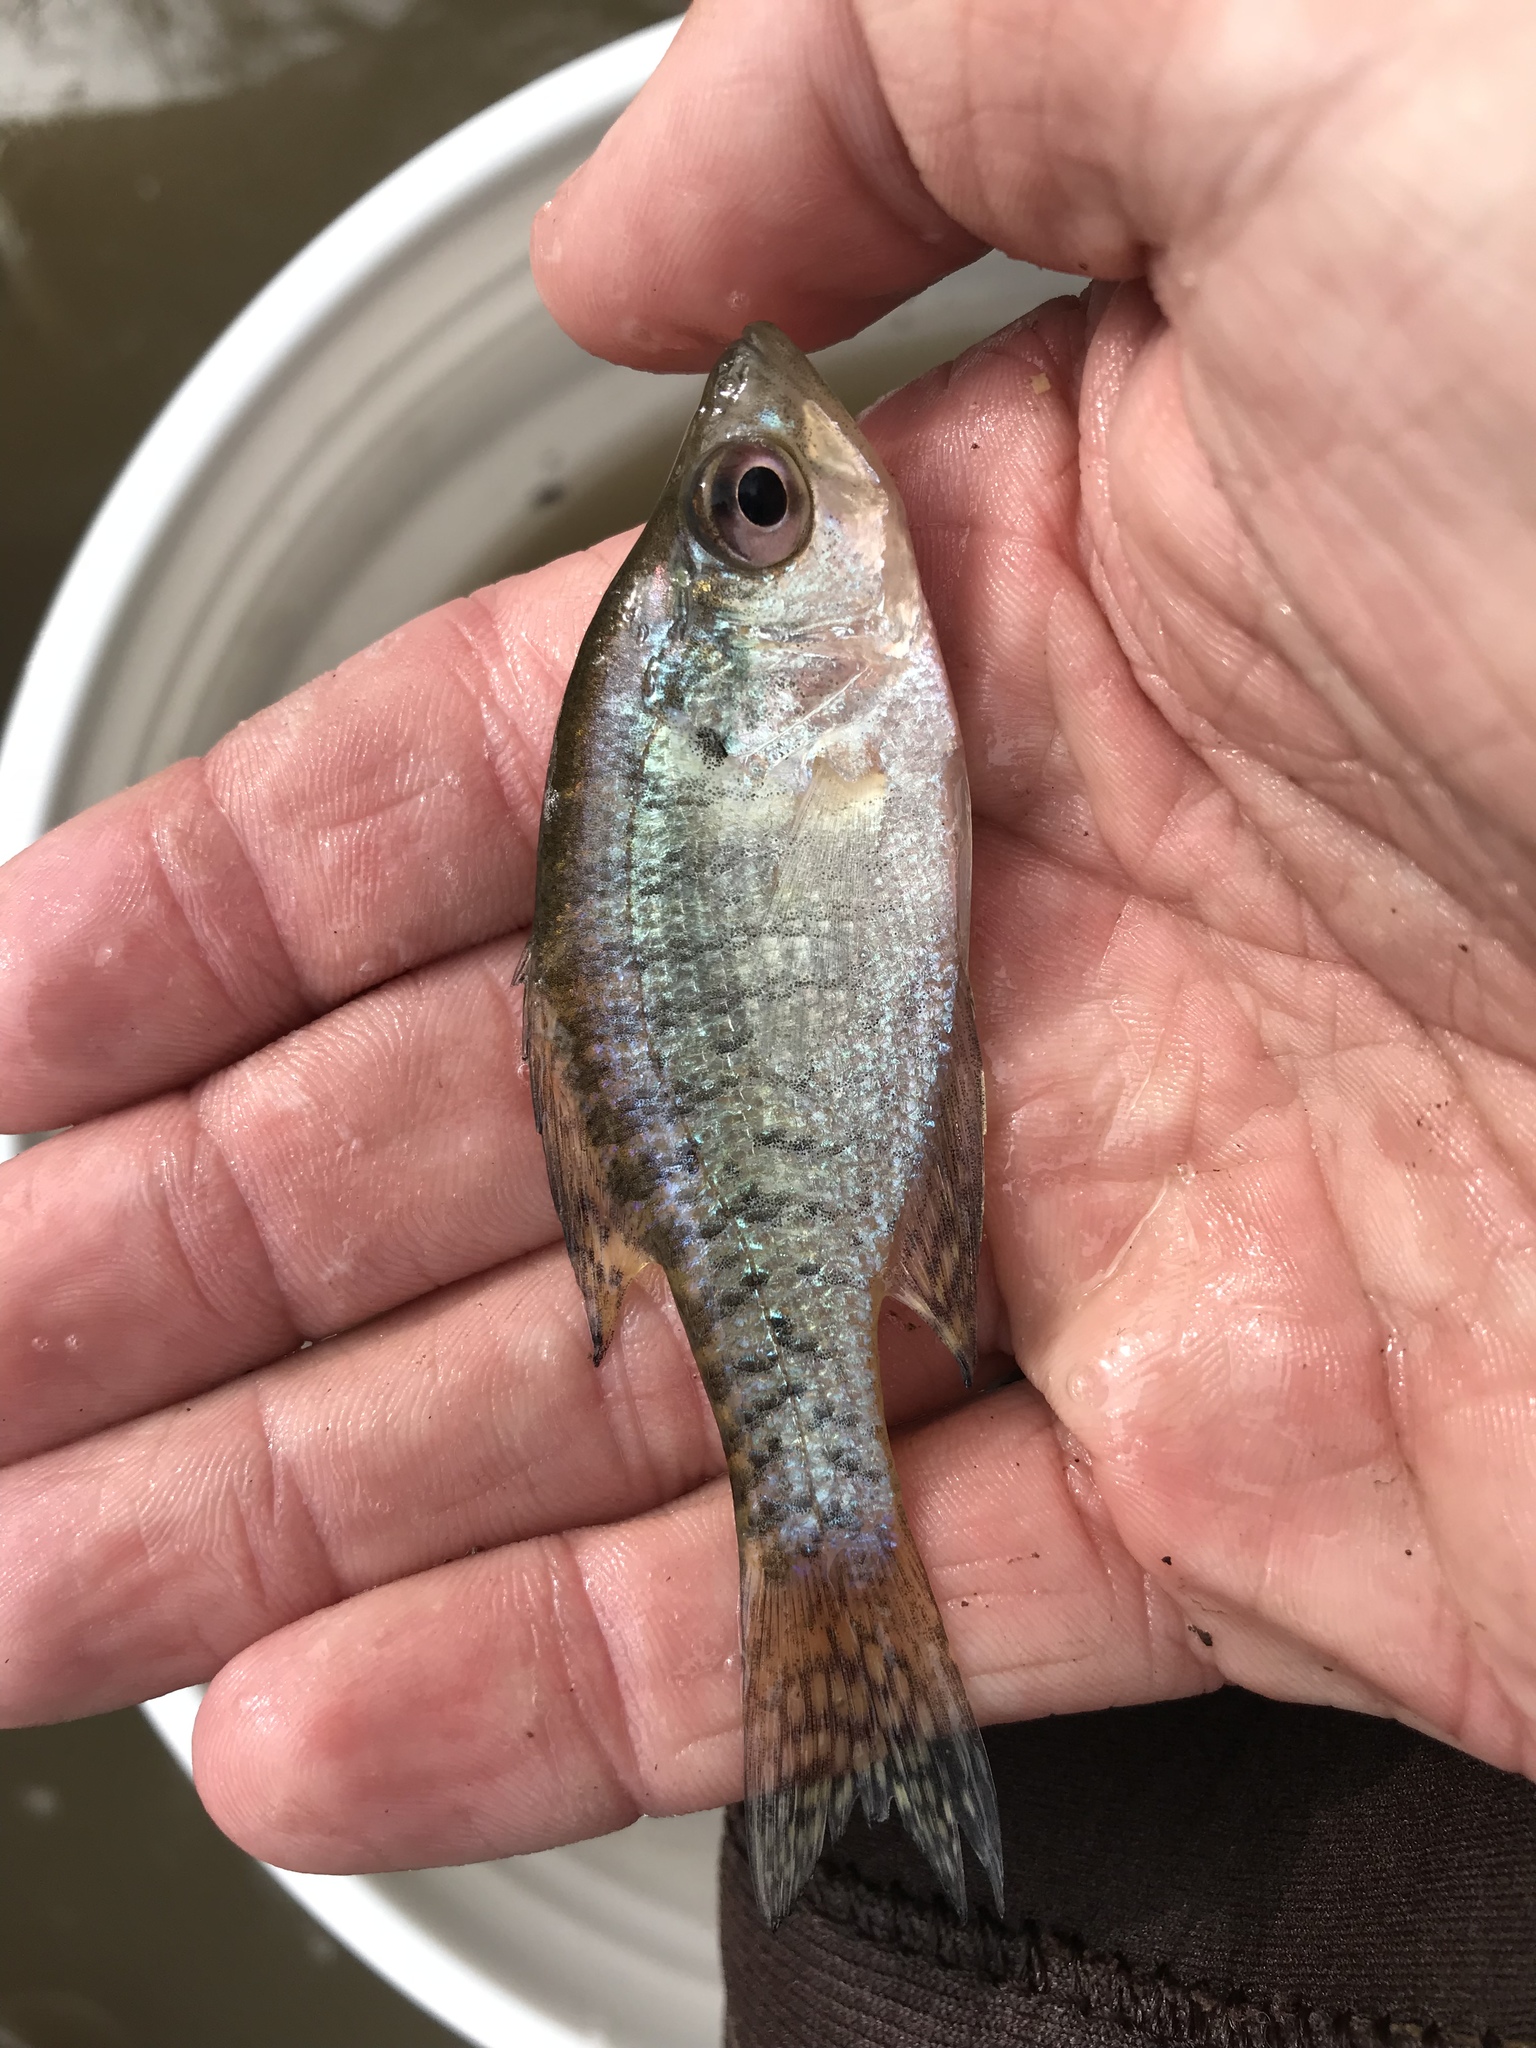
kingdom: Animalia
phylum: Chordata
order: Perciformes
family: Centrarchidae
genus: Pomoxis
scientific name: Pomoxis annularis
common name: White crappie
